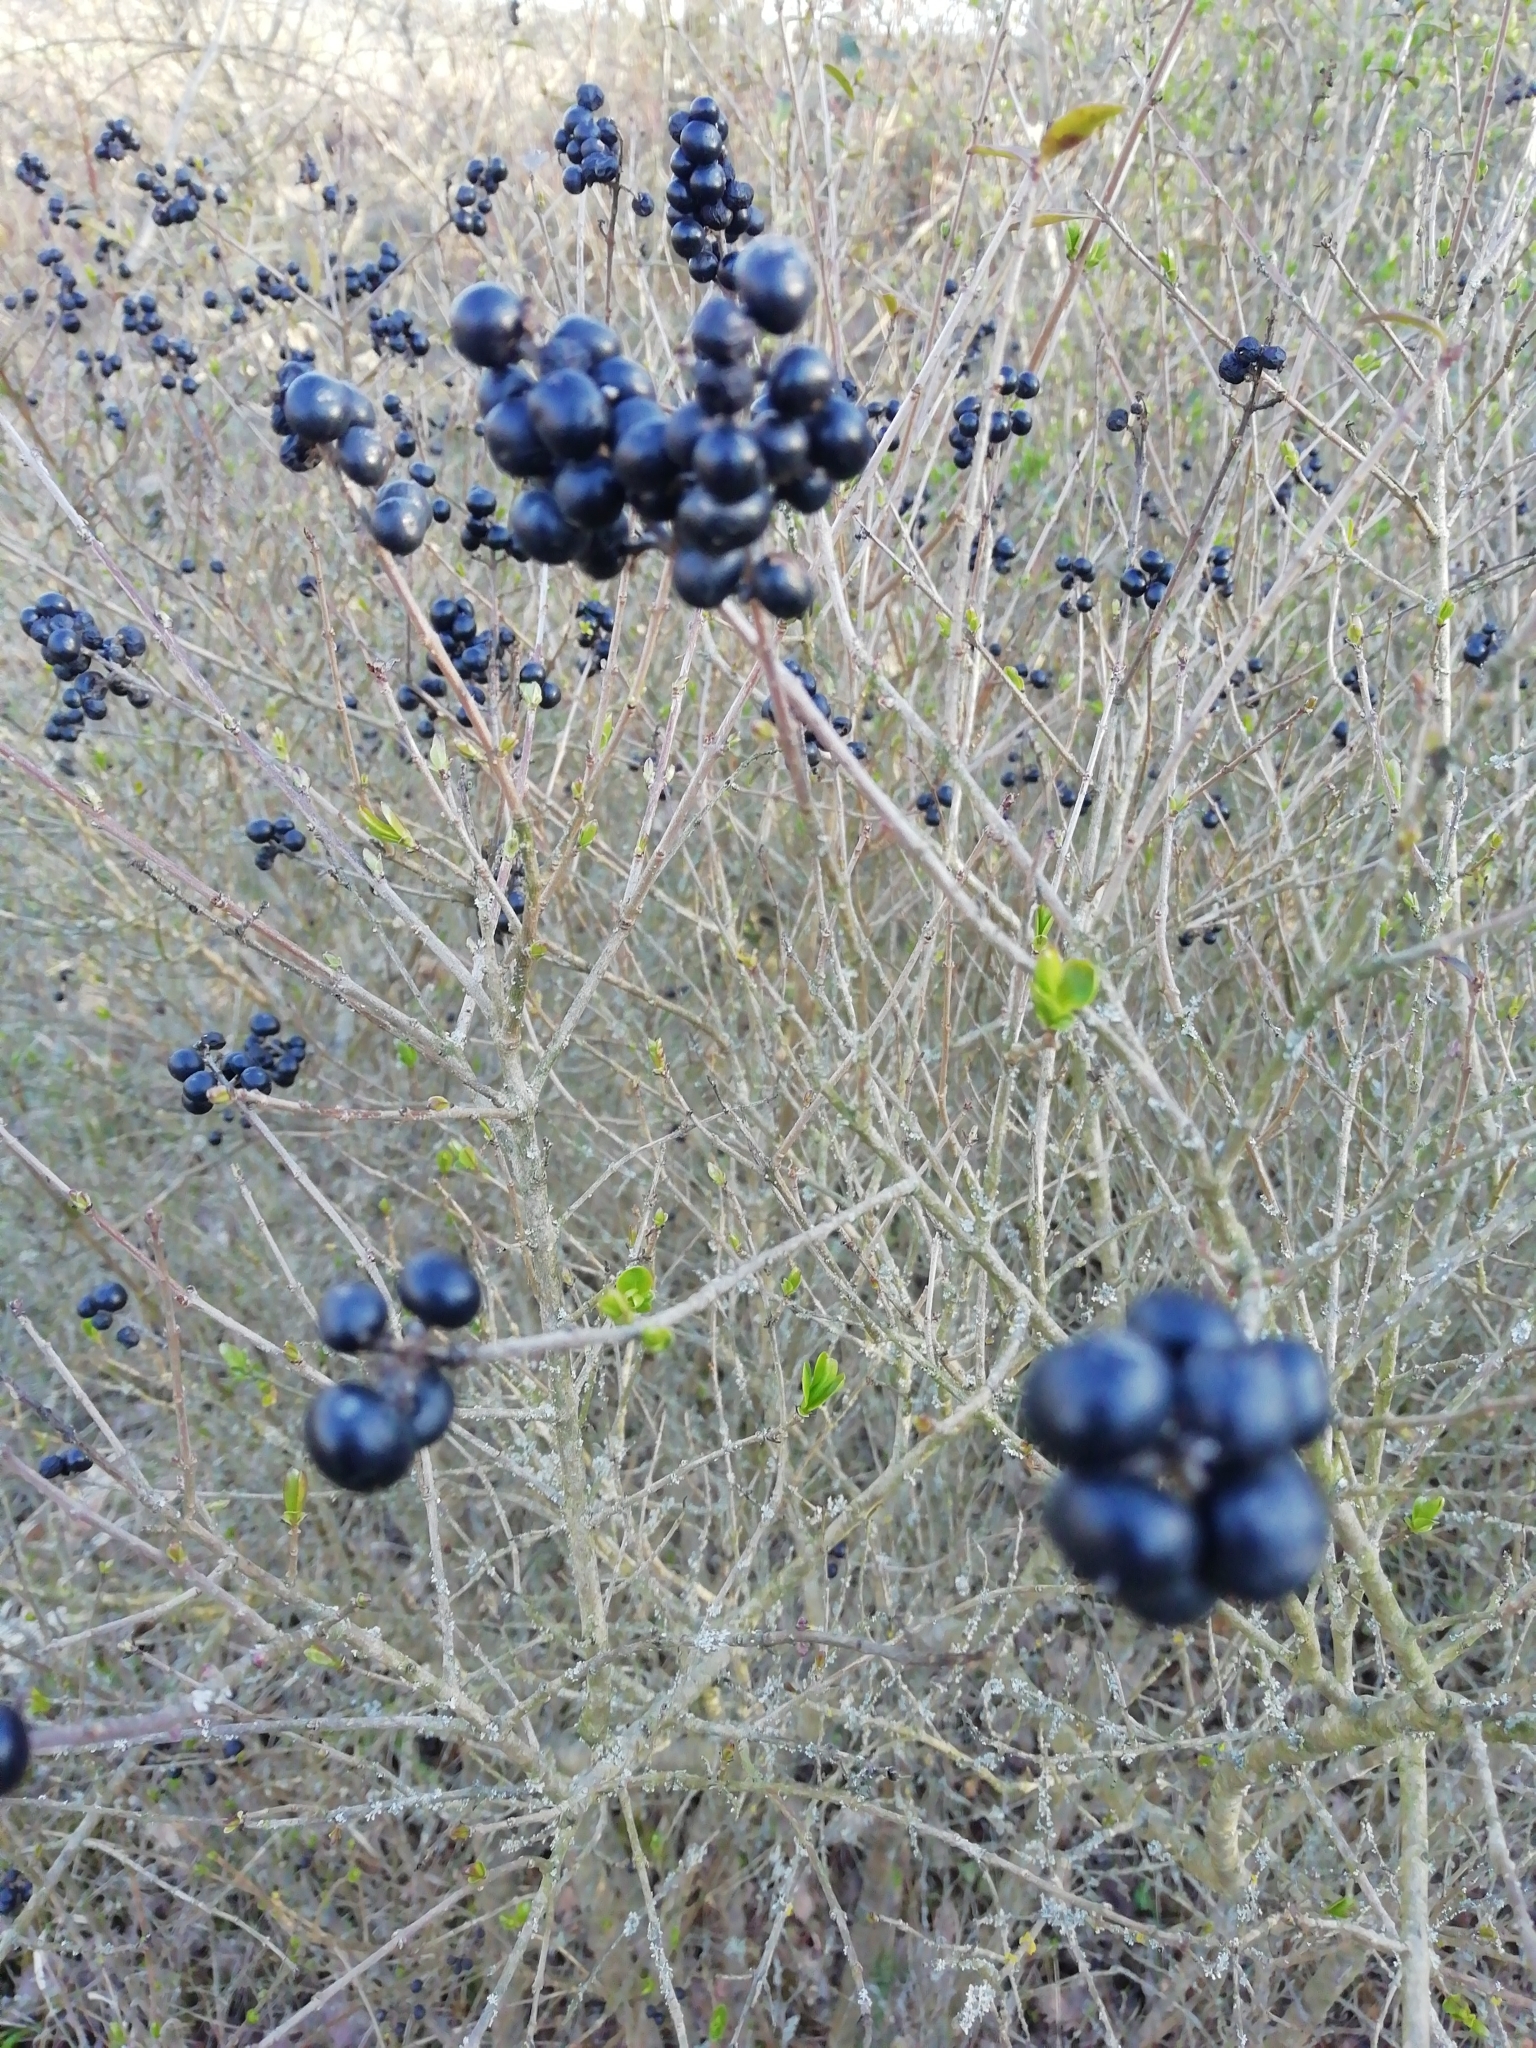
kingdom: Plantae
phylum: Tracheophyta
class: Magnoliopsida
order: Lamiales
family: Oleaceae
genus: Ligustrum
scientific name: Ligustrum vulgare
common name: Wild privet
